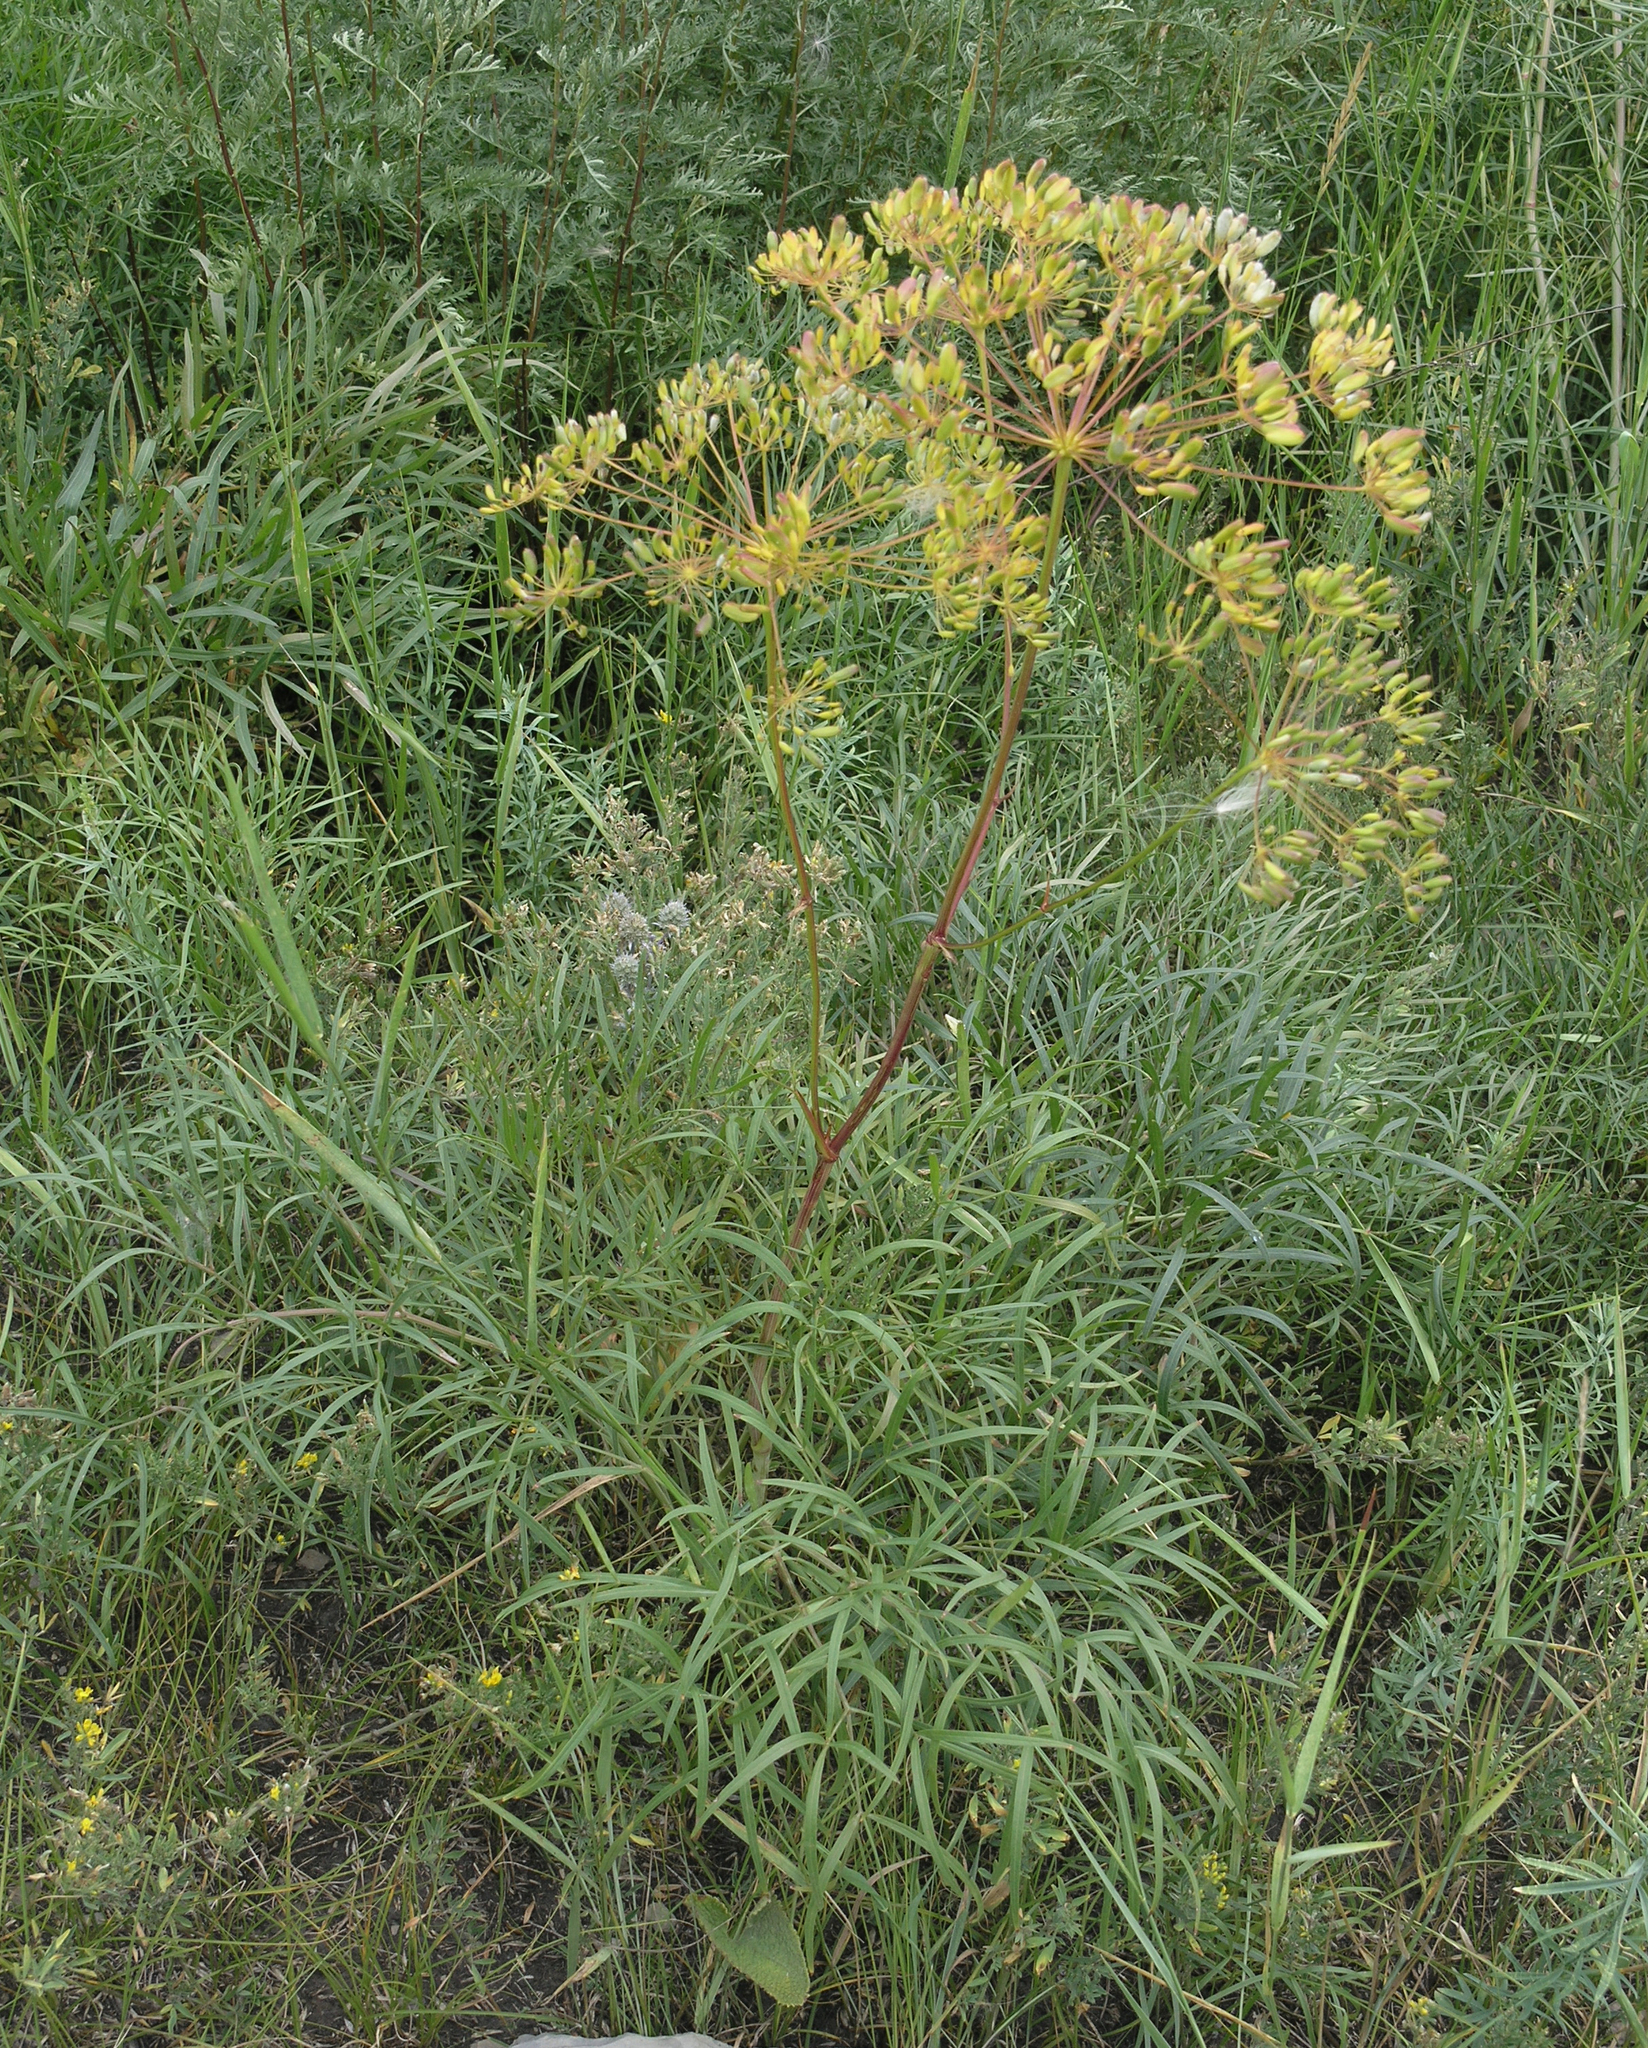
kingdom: Plantae
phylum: Tracheophyta
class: Magnoliopsida
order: Apiales
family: Apiaceae
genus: Peucedanum
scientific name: Peucedanum morisonii
